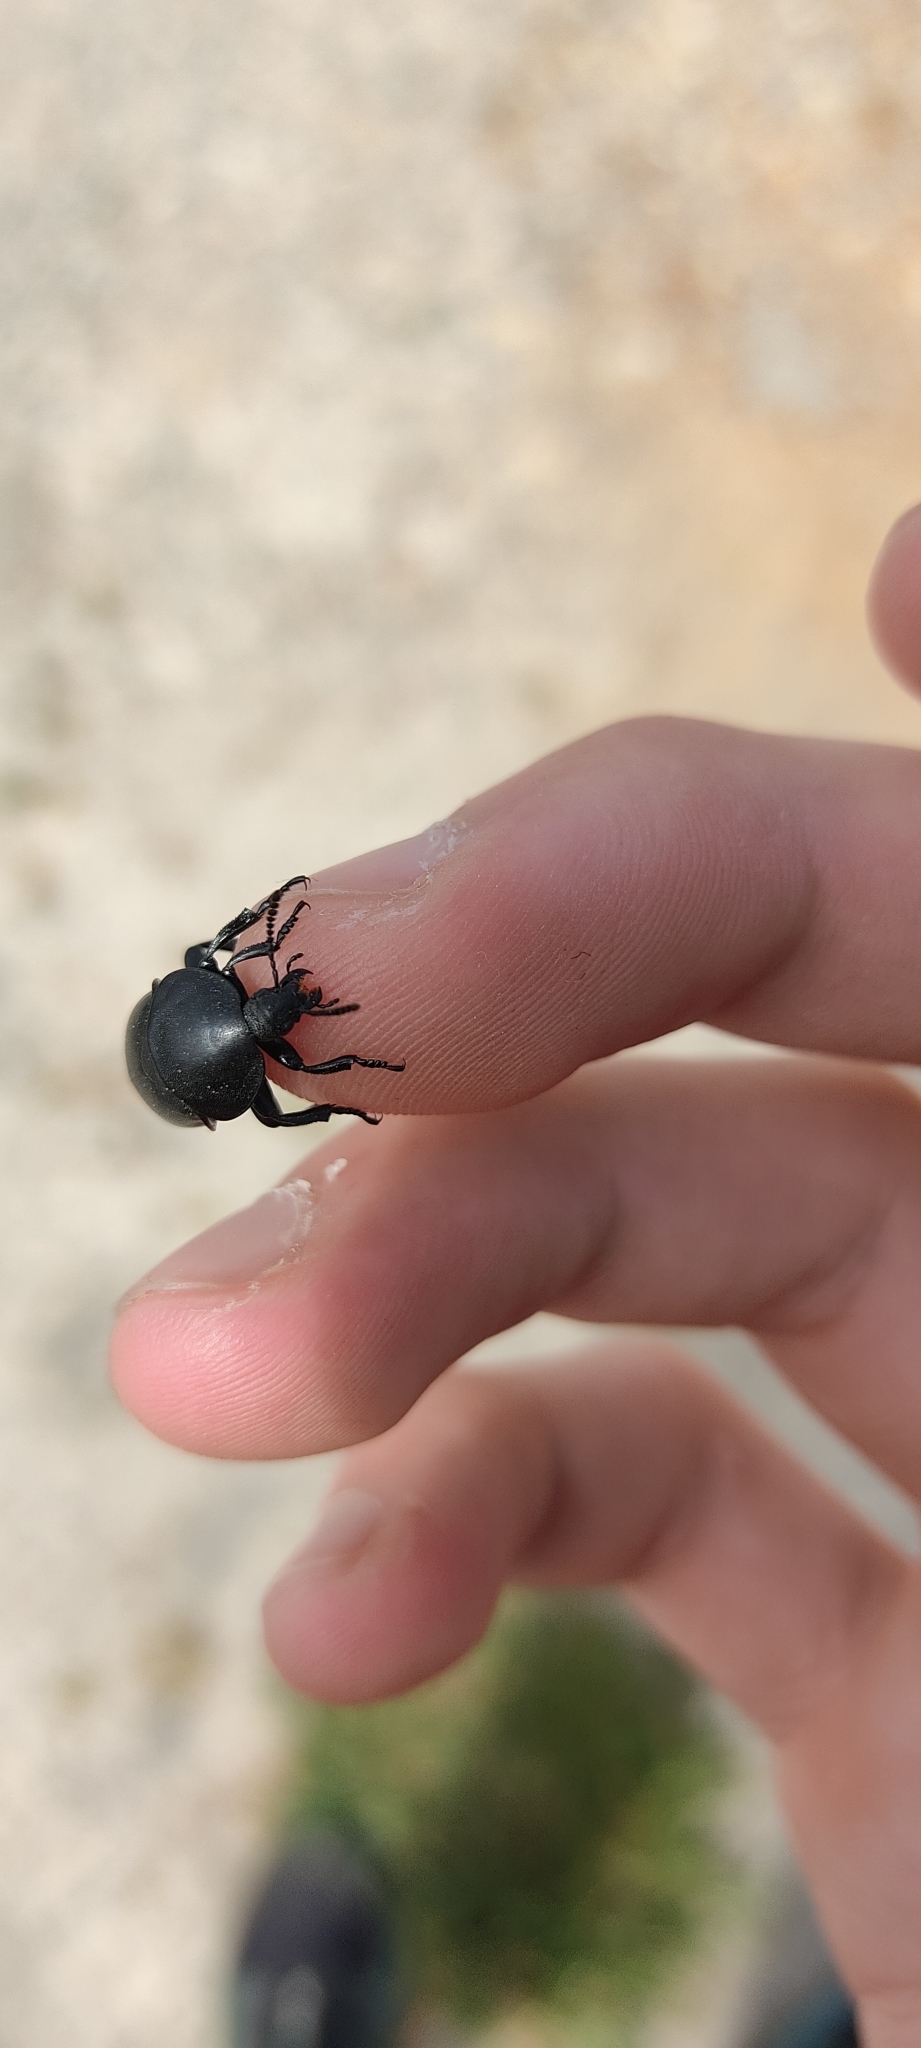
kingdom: Animalia
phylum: Arthropoda
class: Insecta
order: Coleoptera
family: Staphylinidae
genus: Silpha
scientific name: Silpha laevigata
